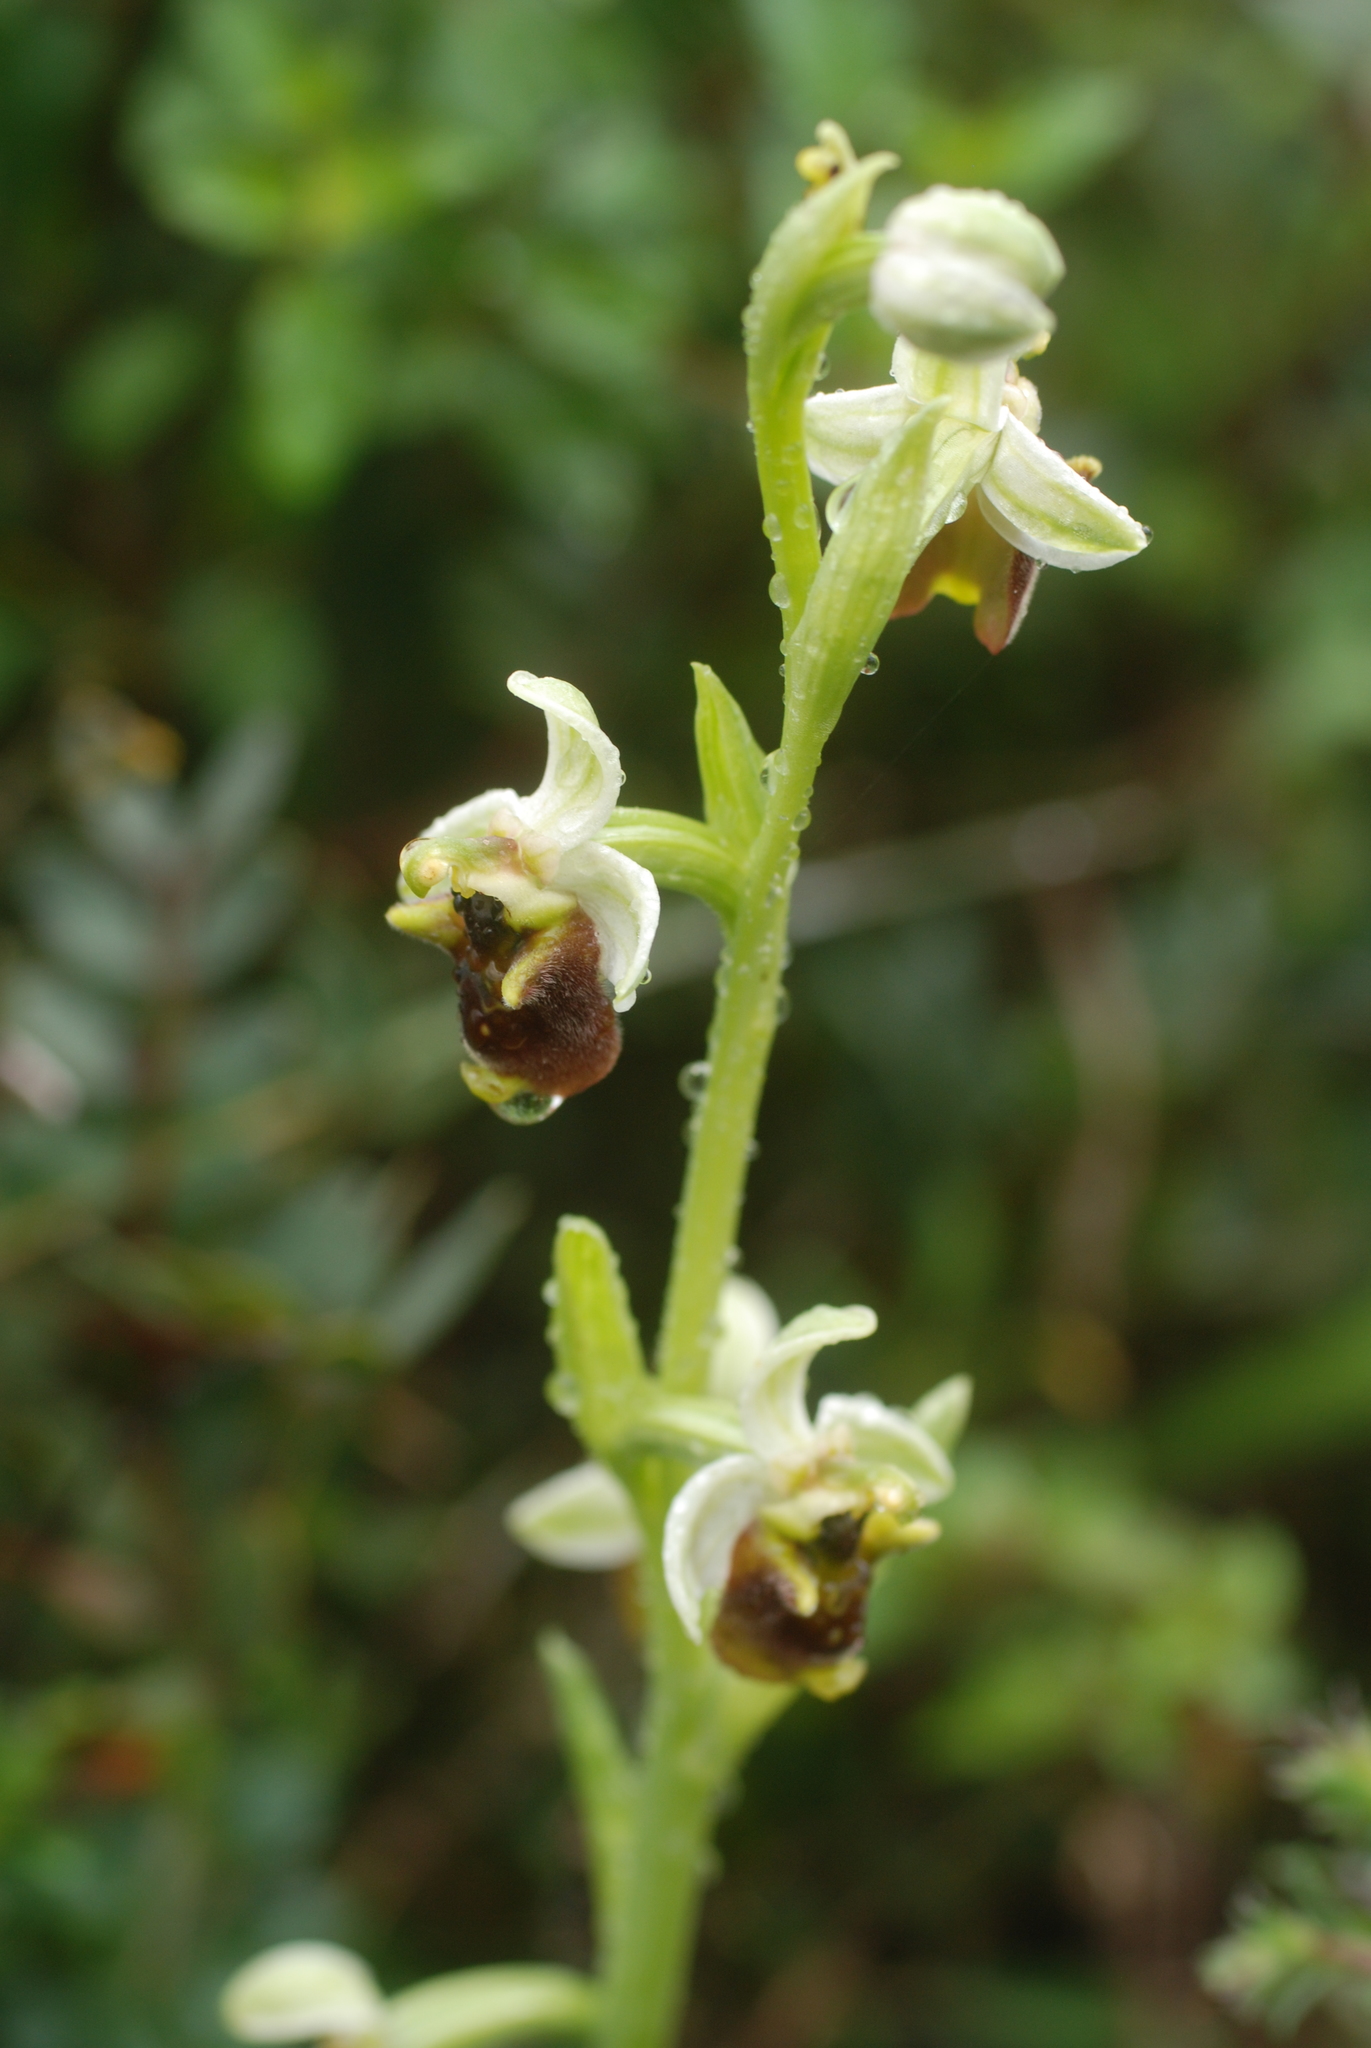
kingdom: Plantae
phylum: Tracheophyta
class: Liliopsida
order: Asparagales
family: Orchidaceae
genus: Ophrys
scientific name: Ophrys bornmuelleri
